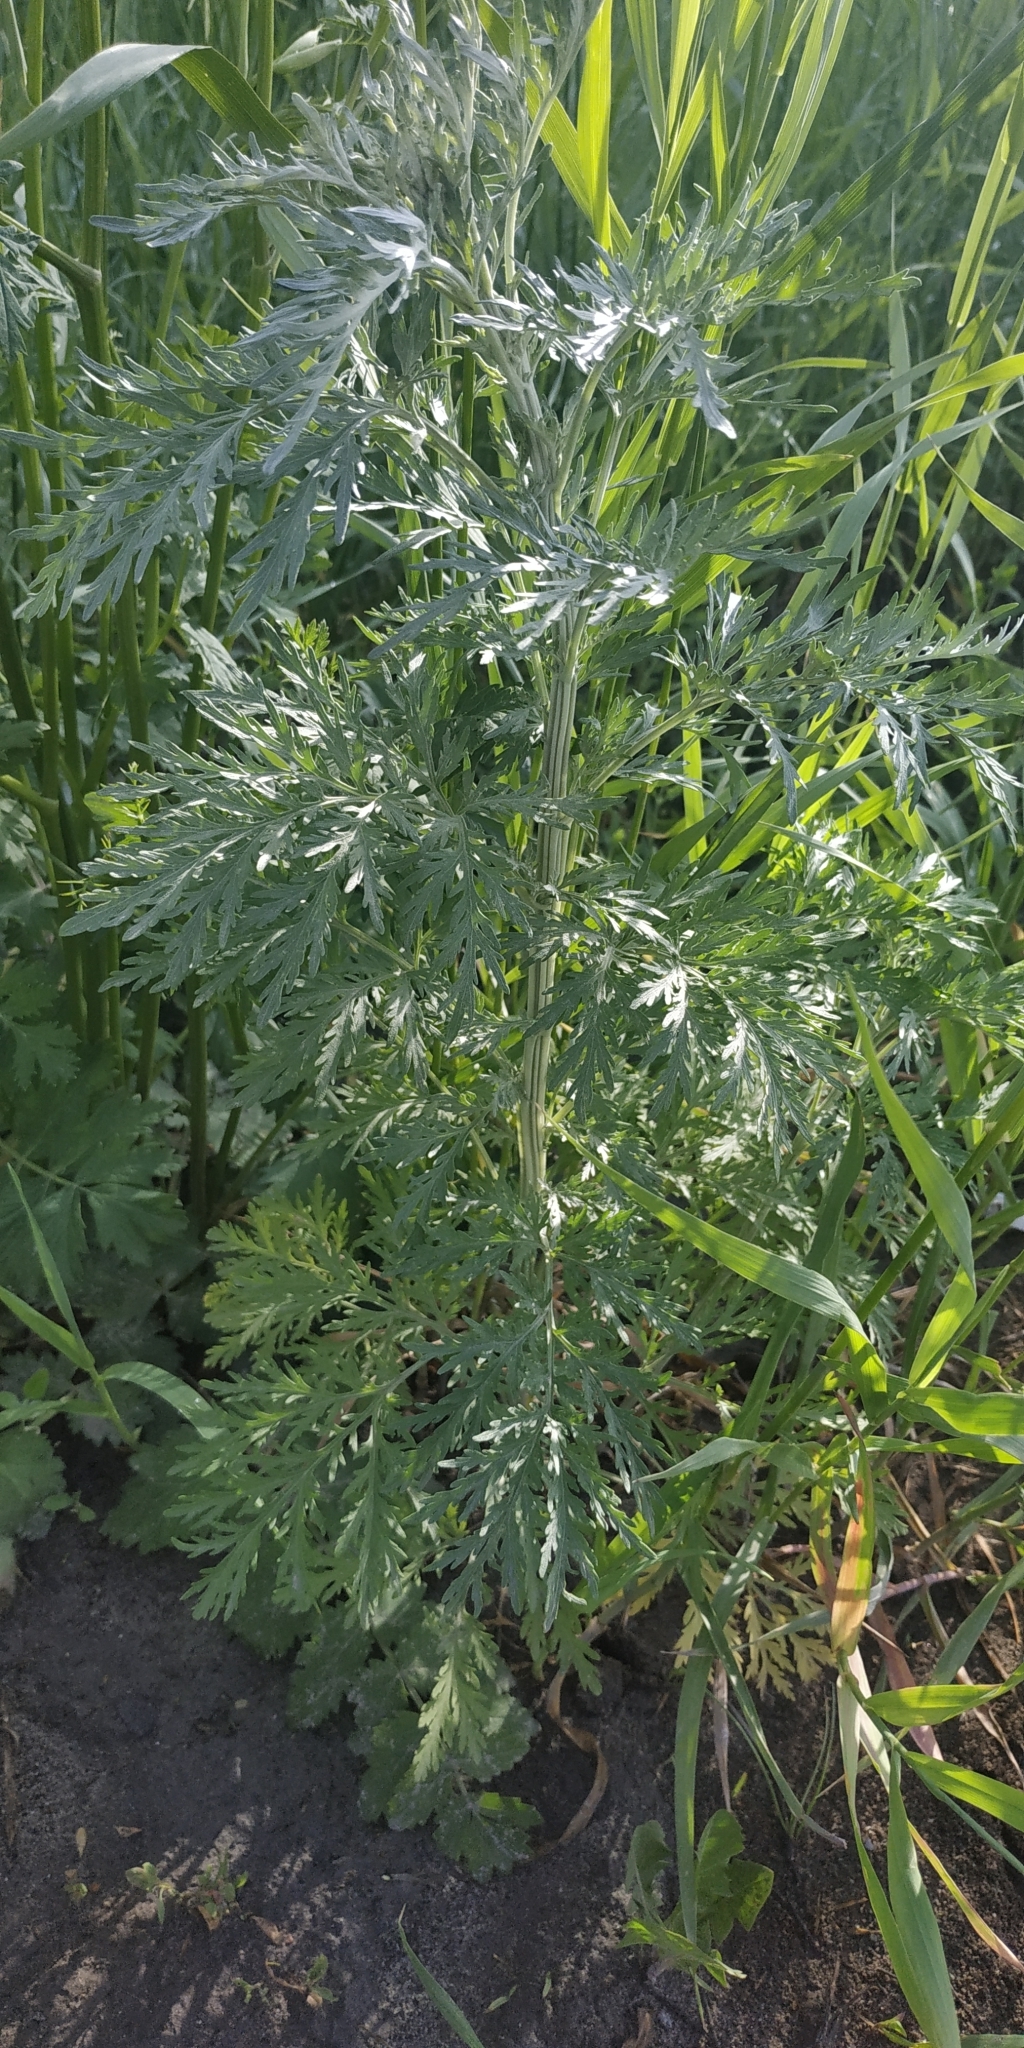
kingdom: Plantae
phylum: Tracheophyta
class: Magnoliopsida
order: Asterales
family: Asteraceae
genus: Artemisia
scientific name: Artemisia sieversiana
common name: Sieversian wormwood
